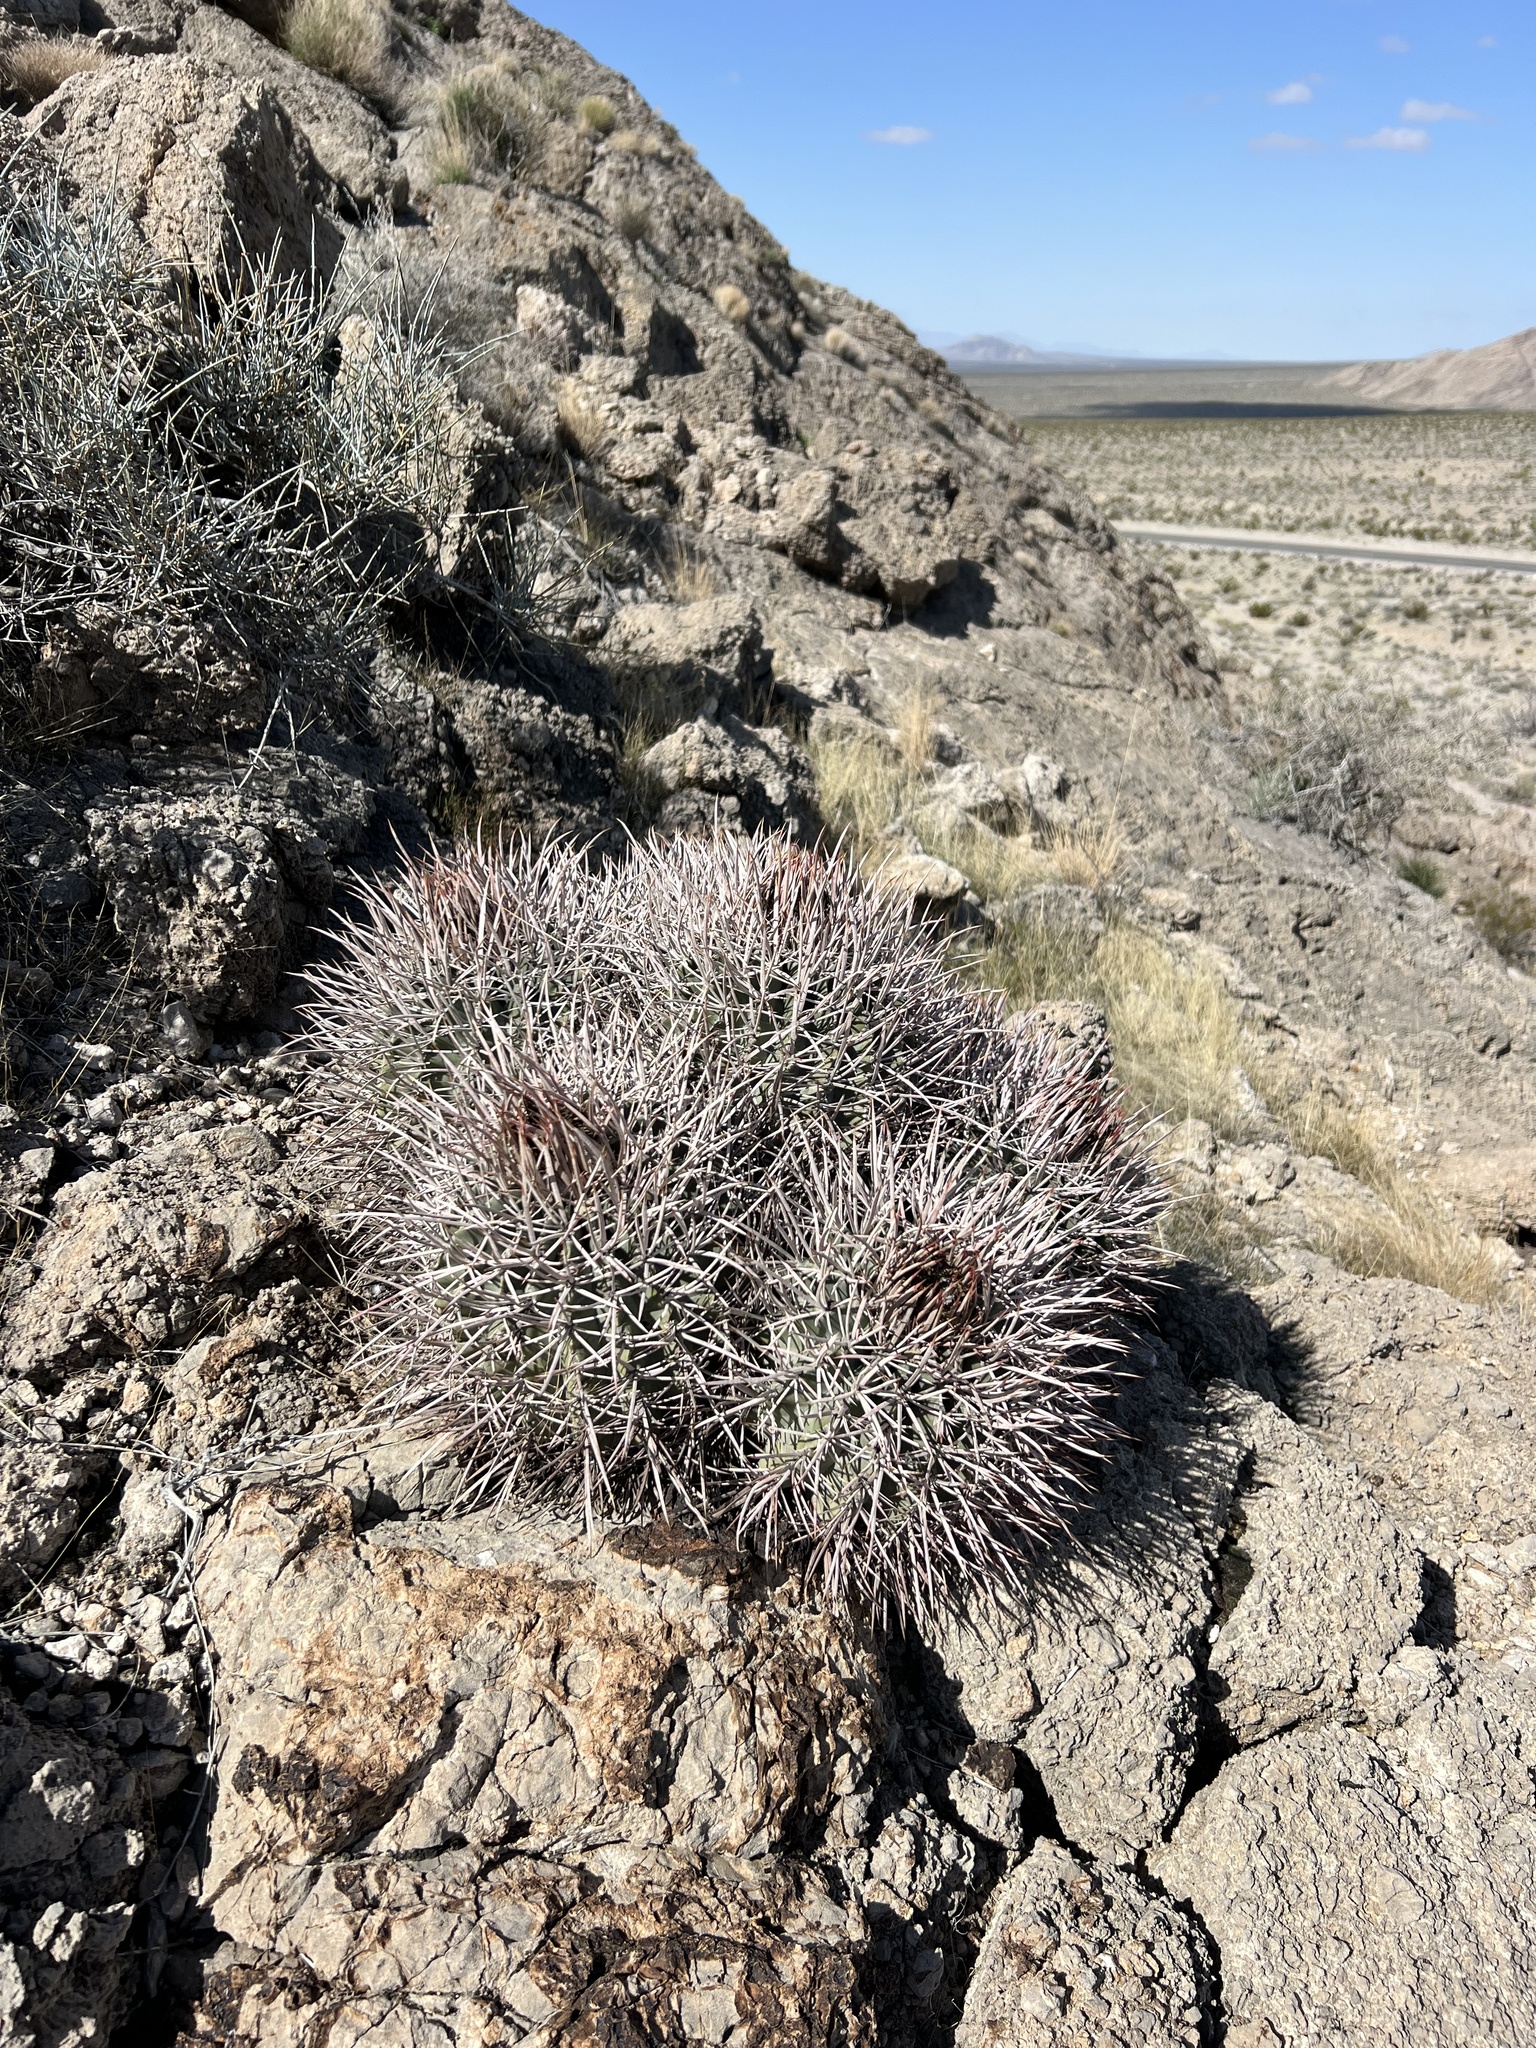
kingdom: Plantae
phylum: Tracheophyta
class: Magnoliopsida
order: Caryophyllales
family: Cactaceae
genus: Echinocactus
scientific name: Echinocactus polycephalus
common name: Cottontop cactus
